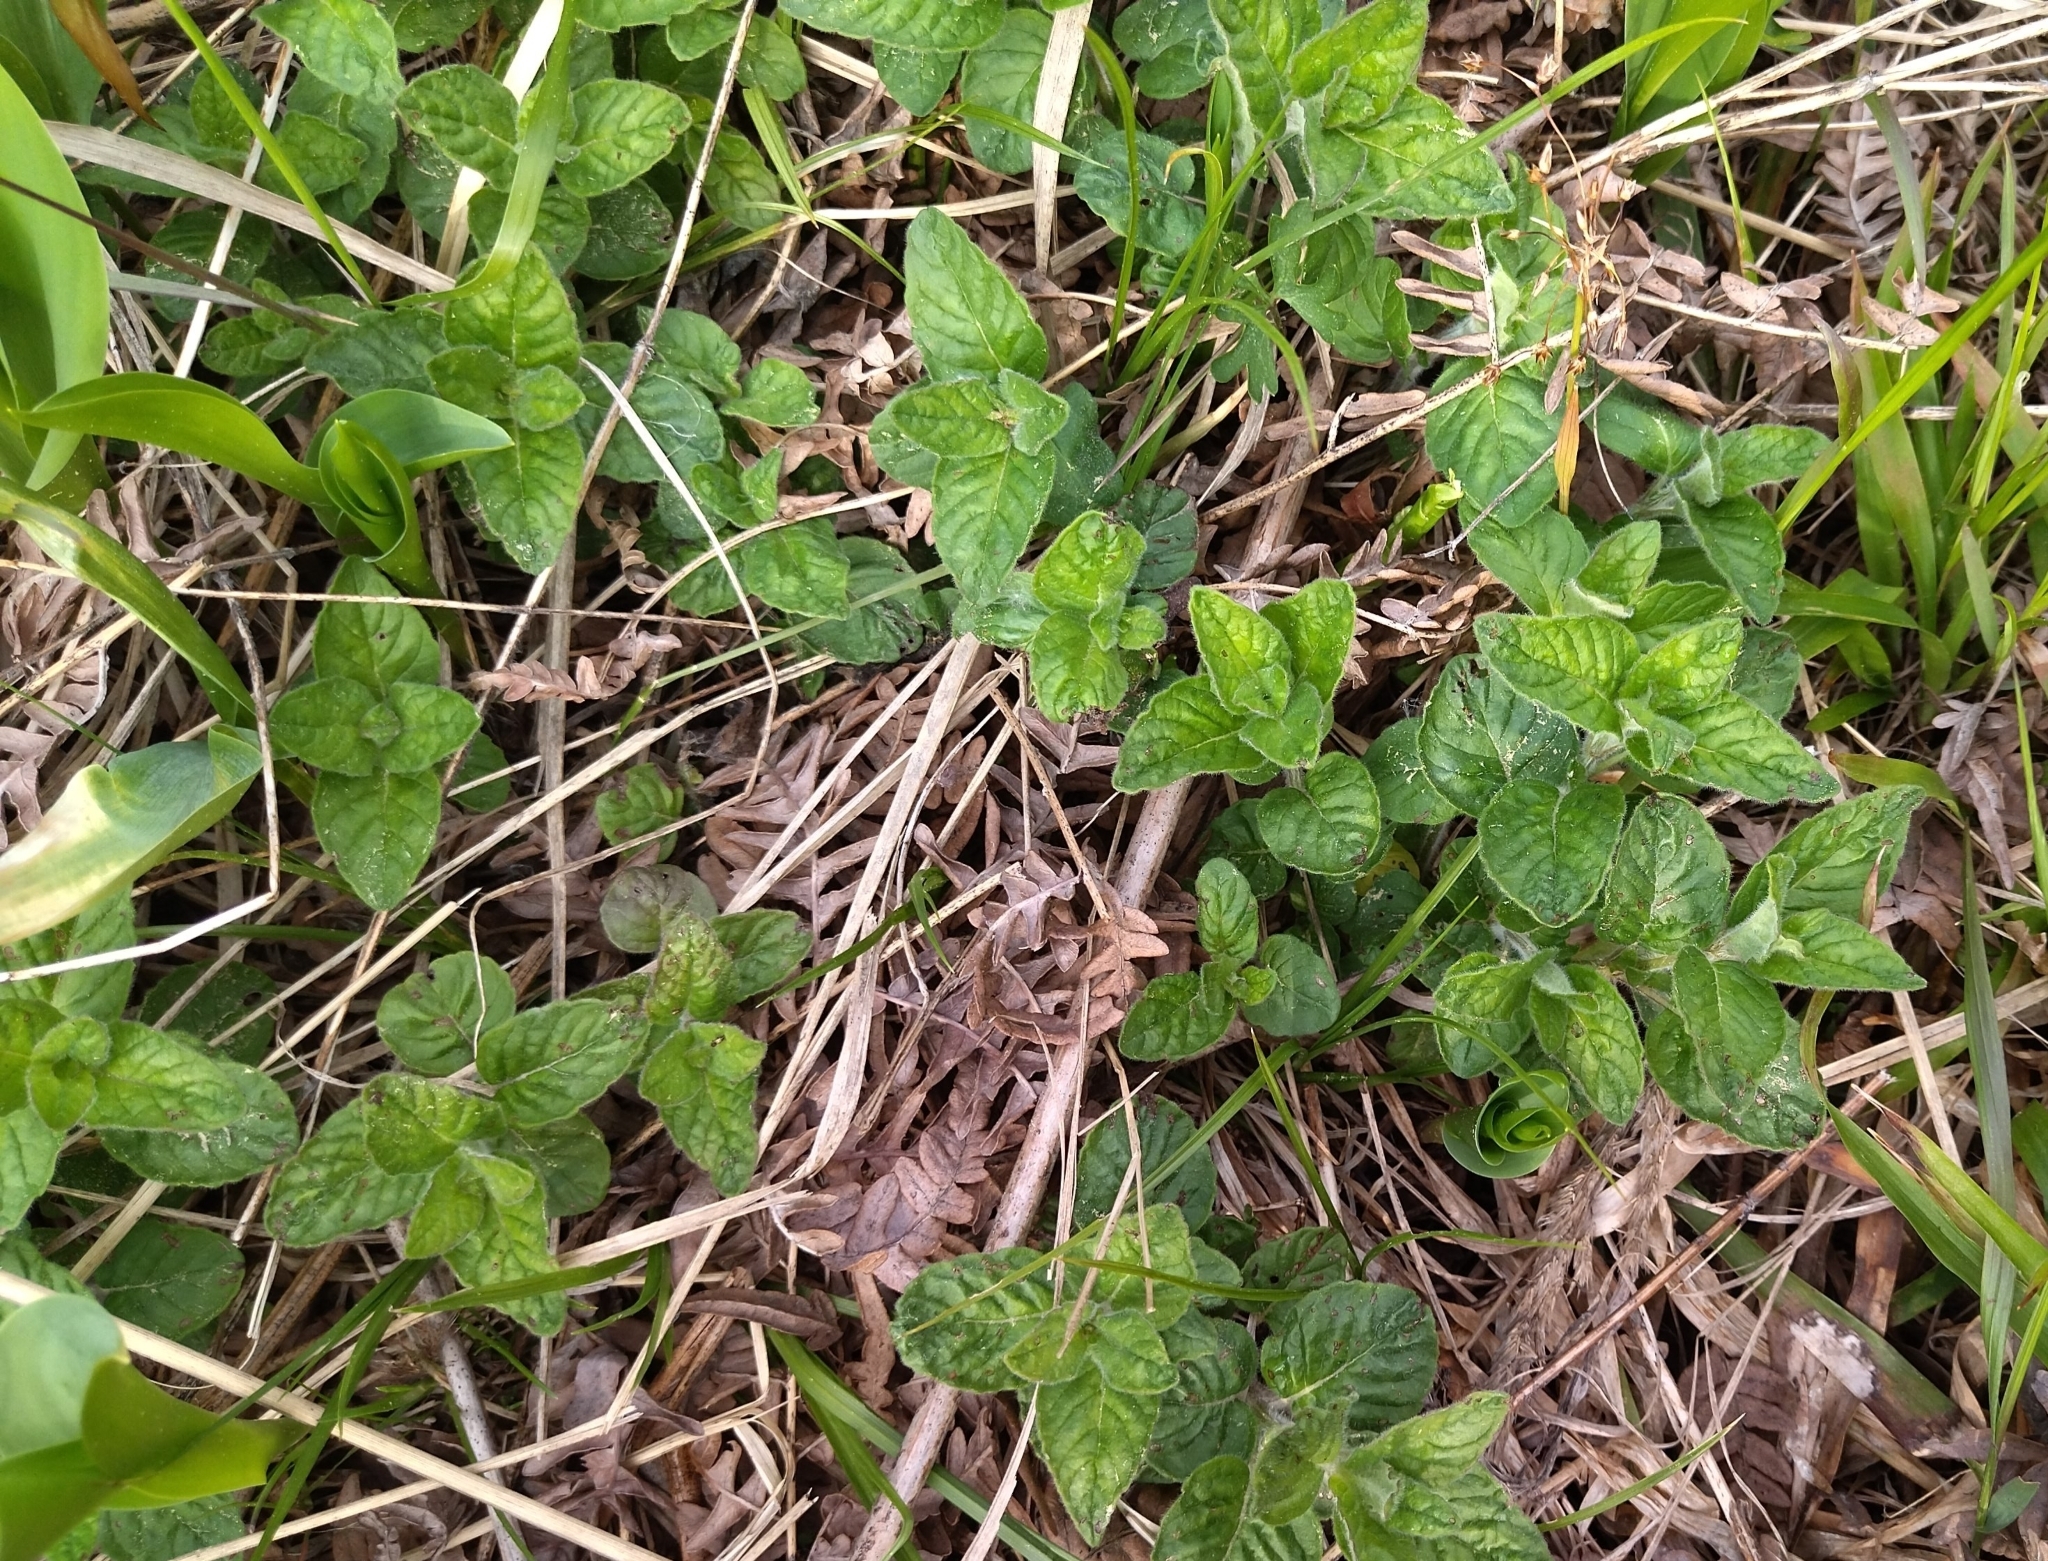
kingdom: Plantae
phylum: Tracheophyta
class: Magnoliopsida
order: Lamiales
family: Lamiaceae
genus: Clinopodium
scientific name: Clinopodium vulgare
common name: Wild basil
